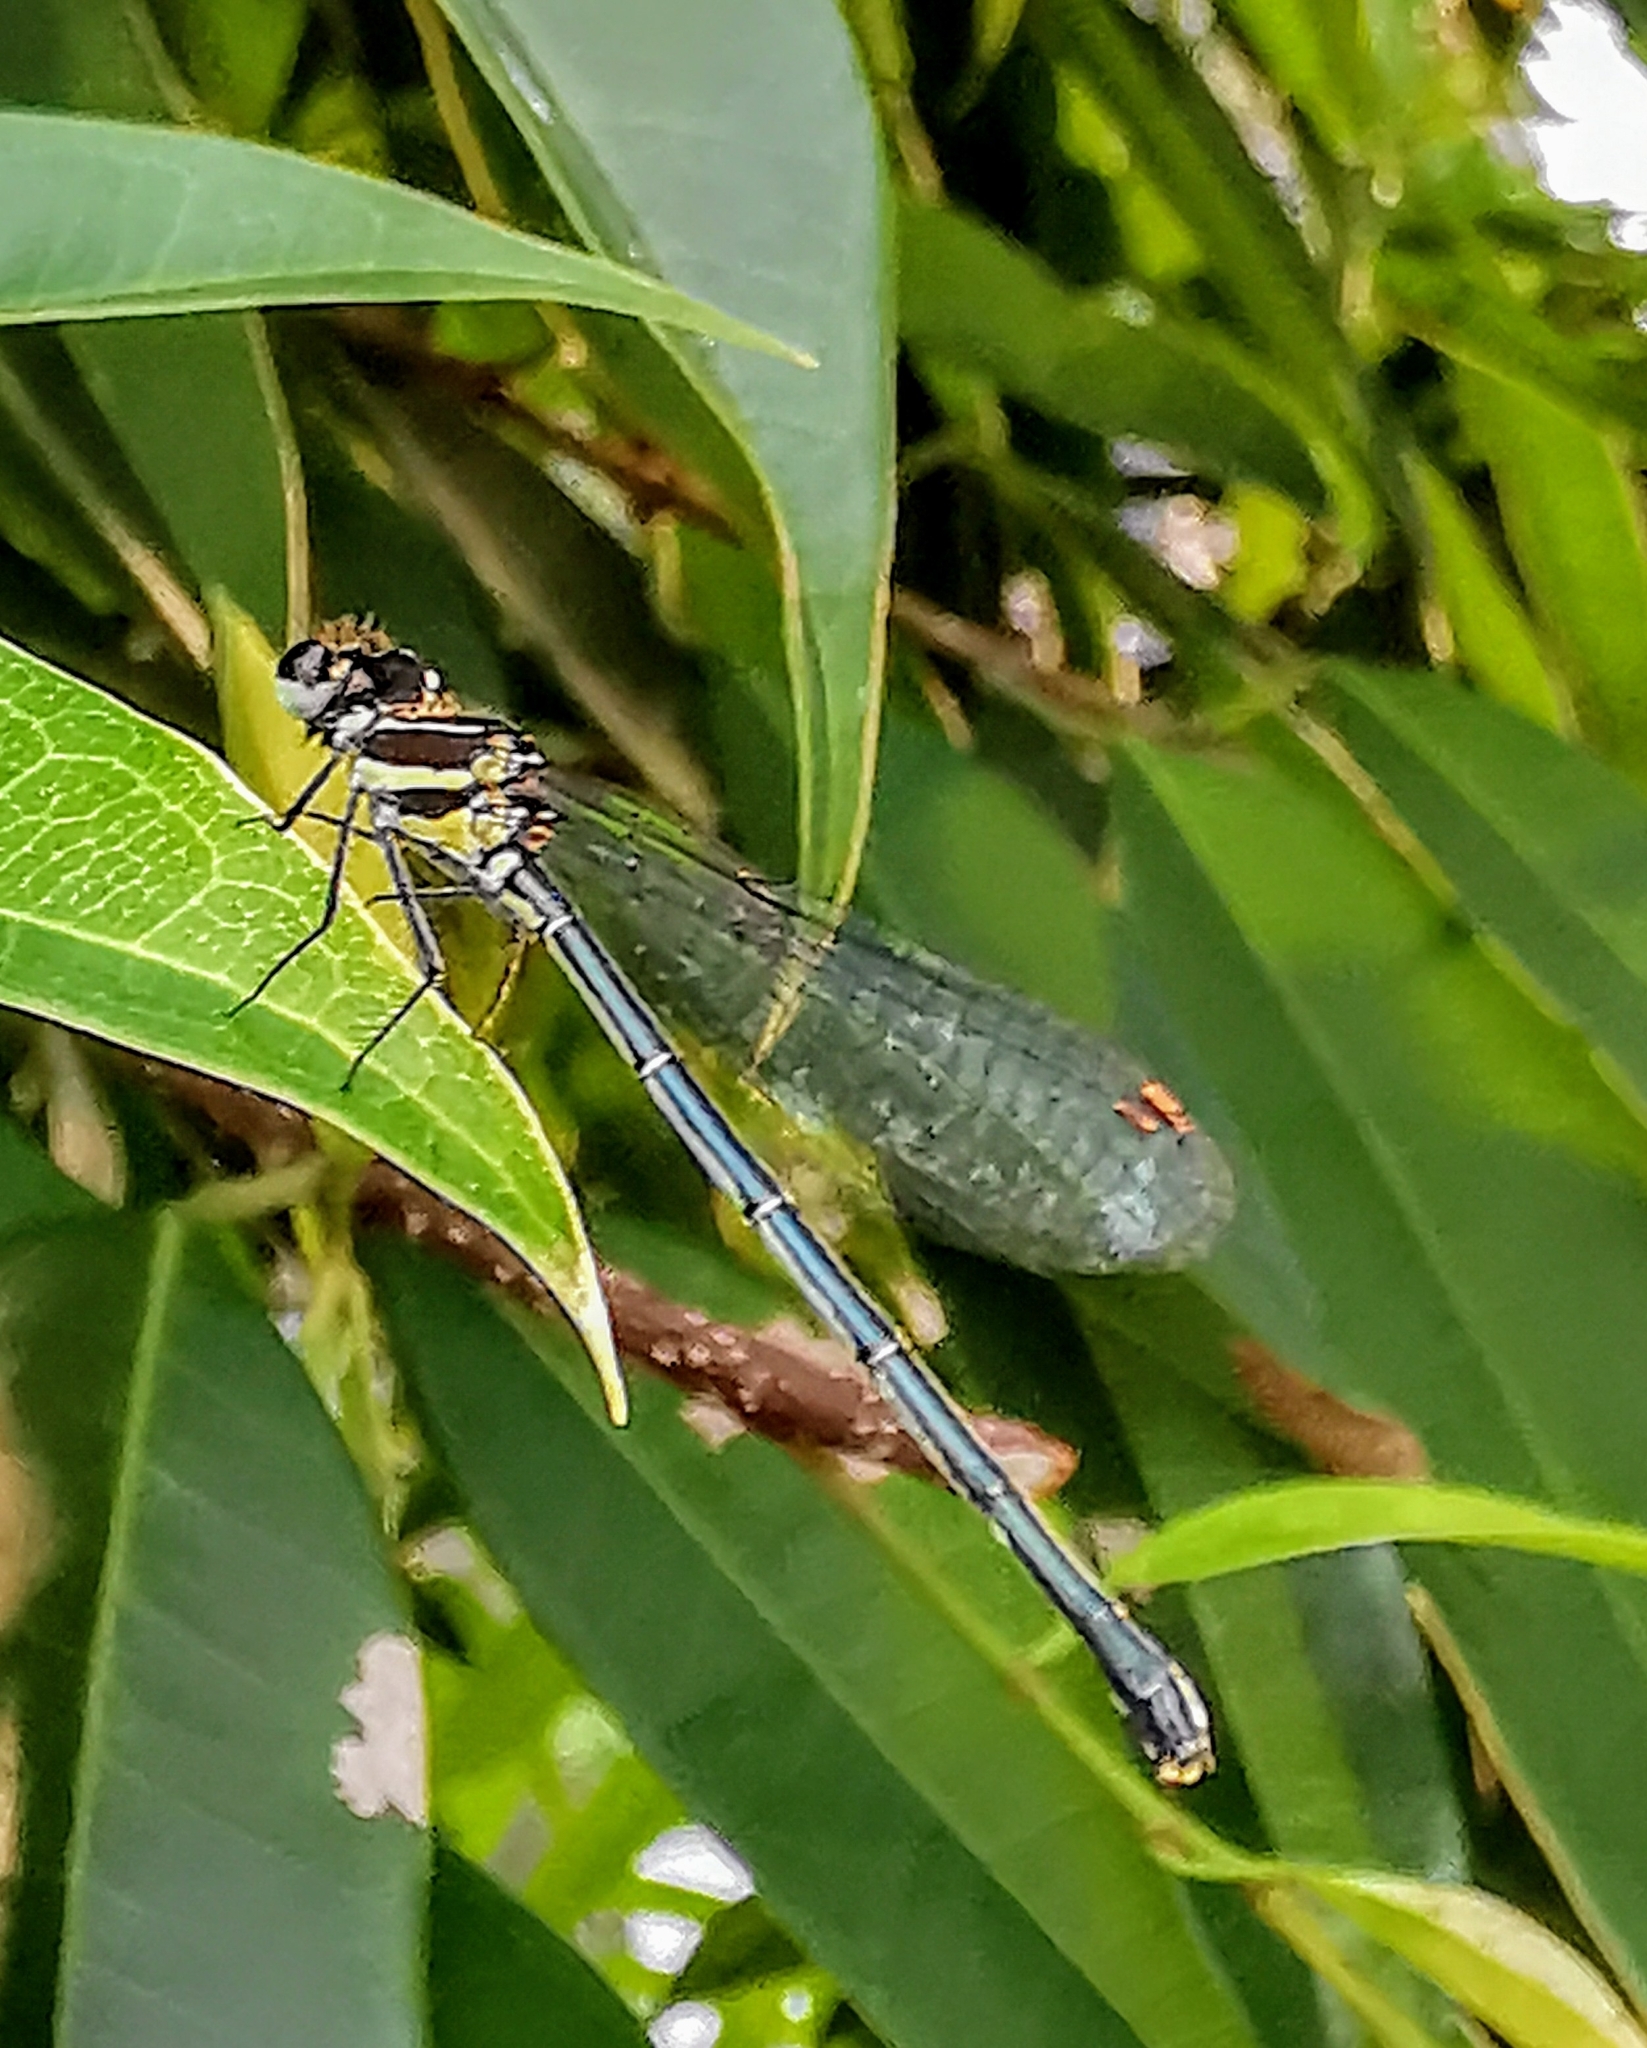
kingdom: Animalia
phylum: Arthropoda
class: Insecta
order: Odonata
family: Platycnemididae
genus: Onychargia
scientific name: Onychargia atrocyana
